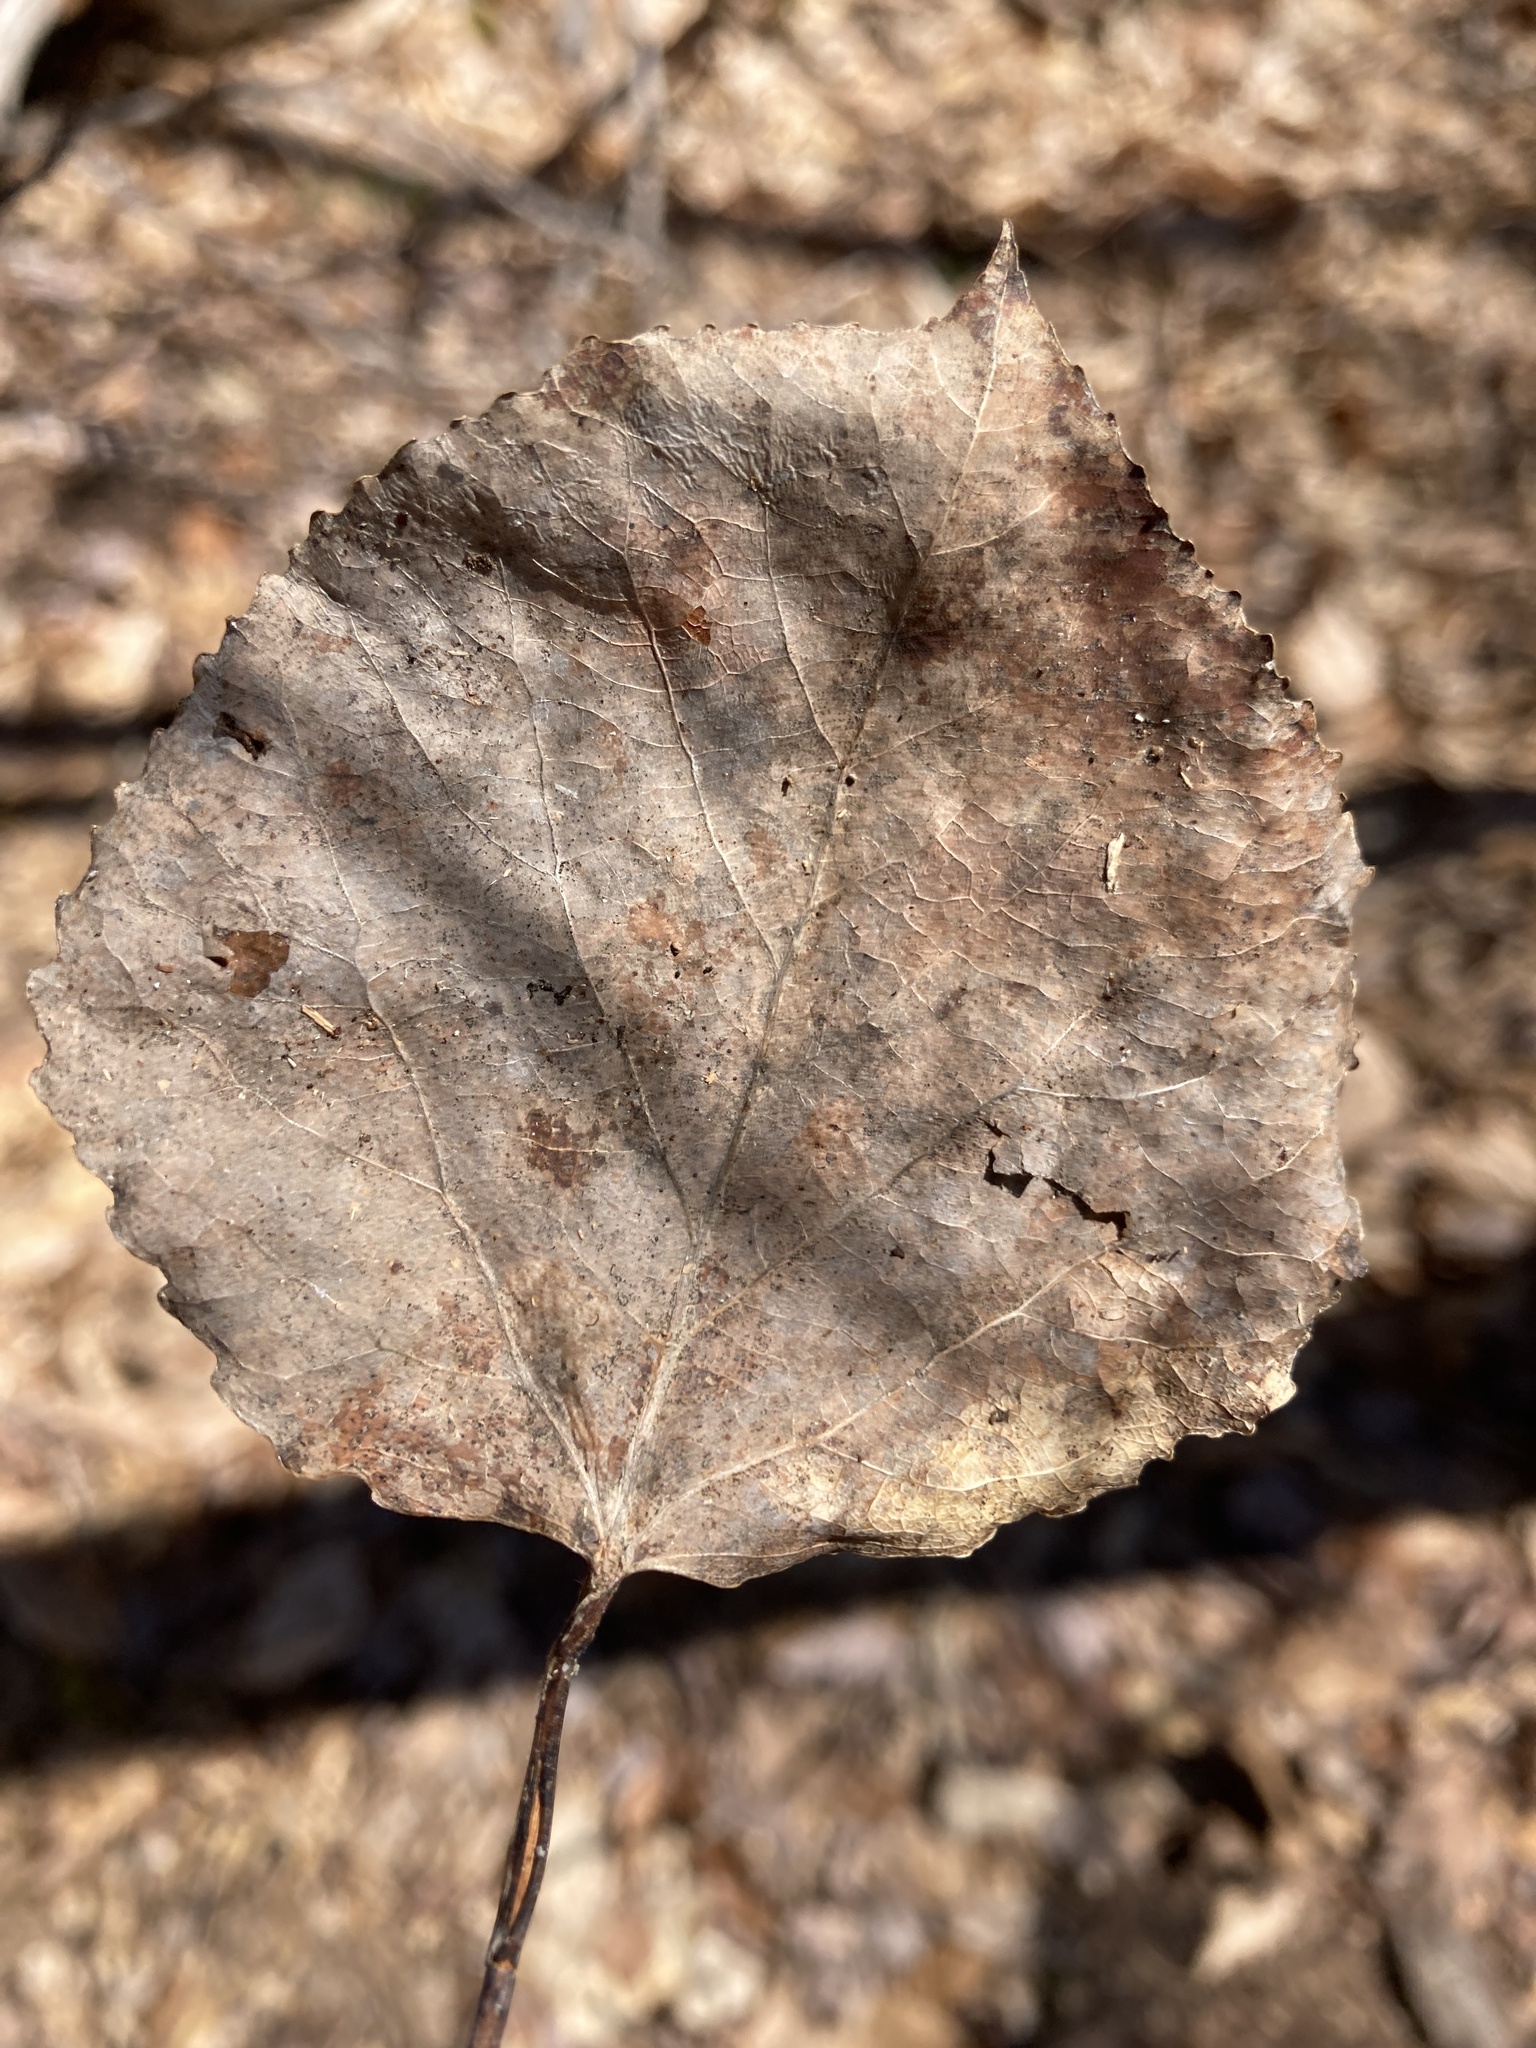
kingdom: Plantae
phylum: Tracheophyta
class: Magnoliopsida
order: Malpighiales
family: Salicaceae
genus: Populus
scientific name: Populus tremuloides
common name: Quaking aspen
